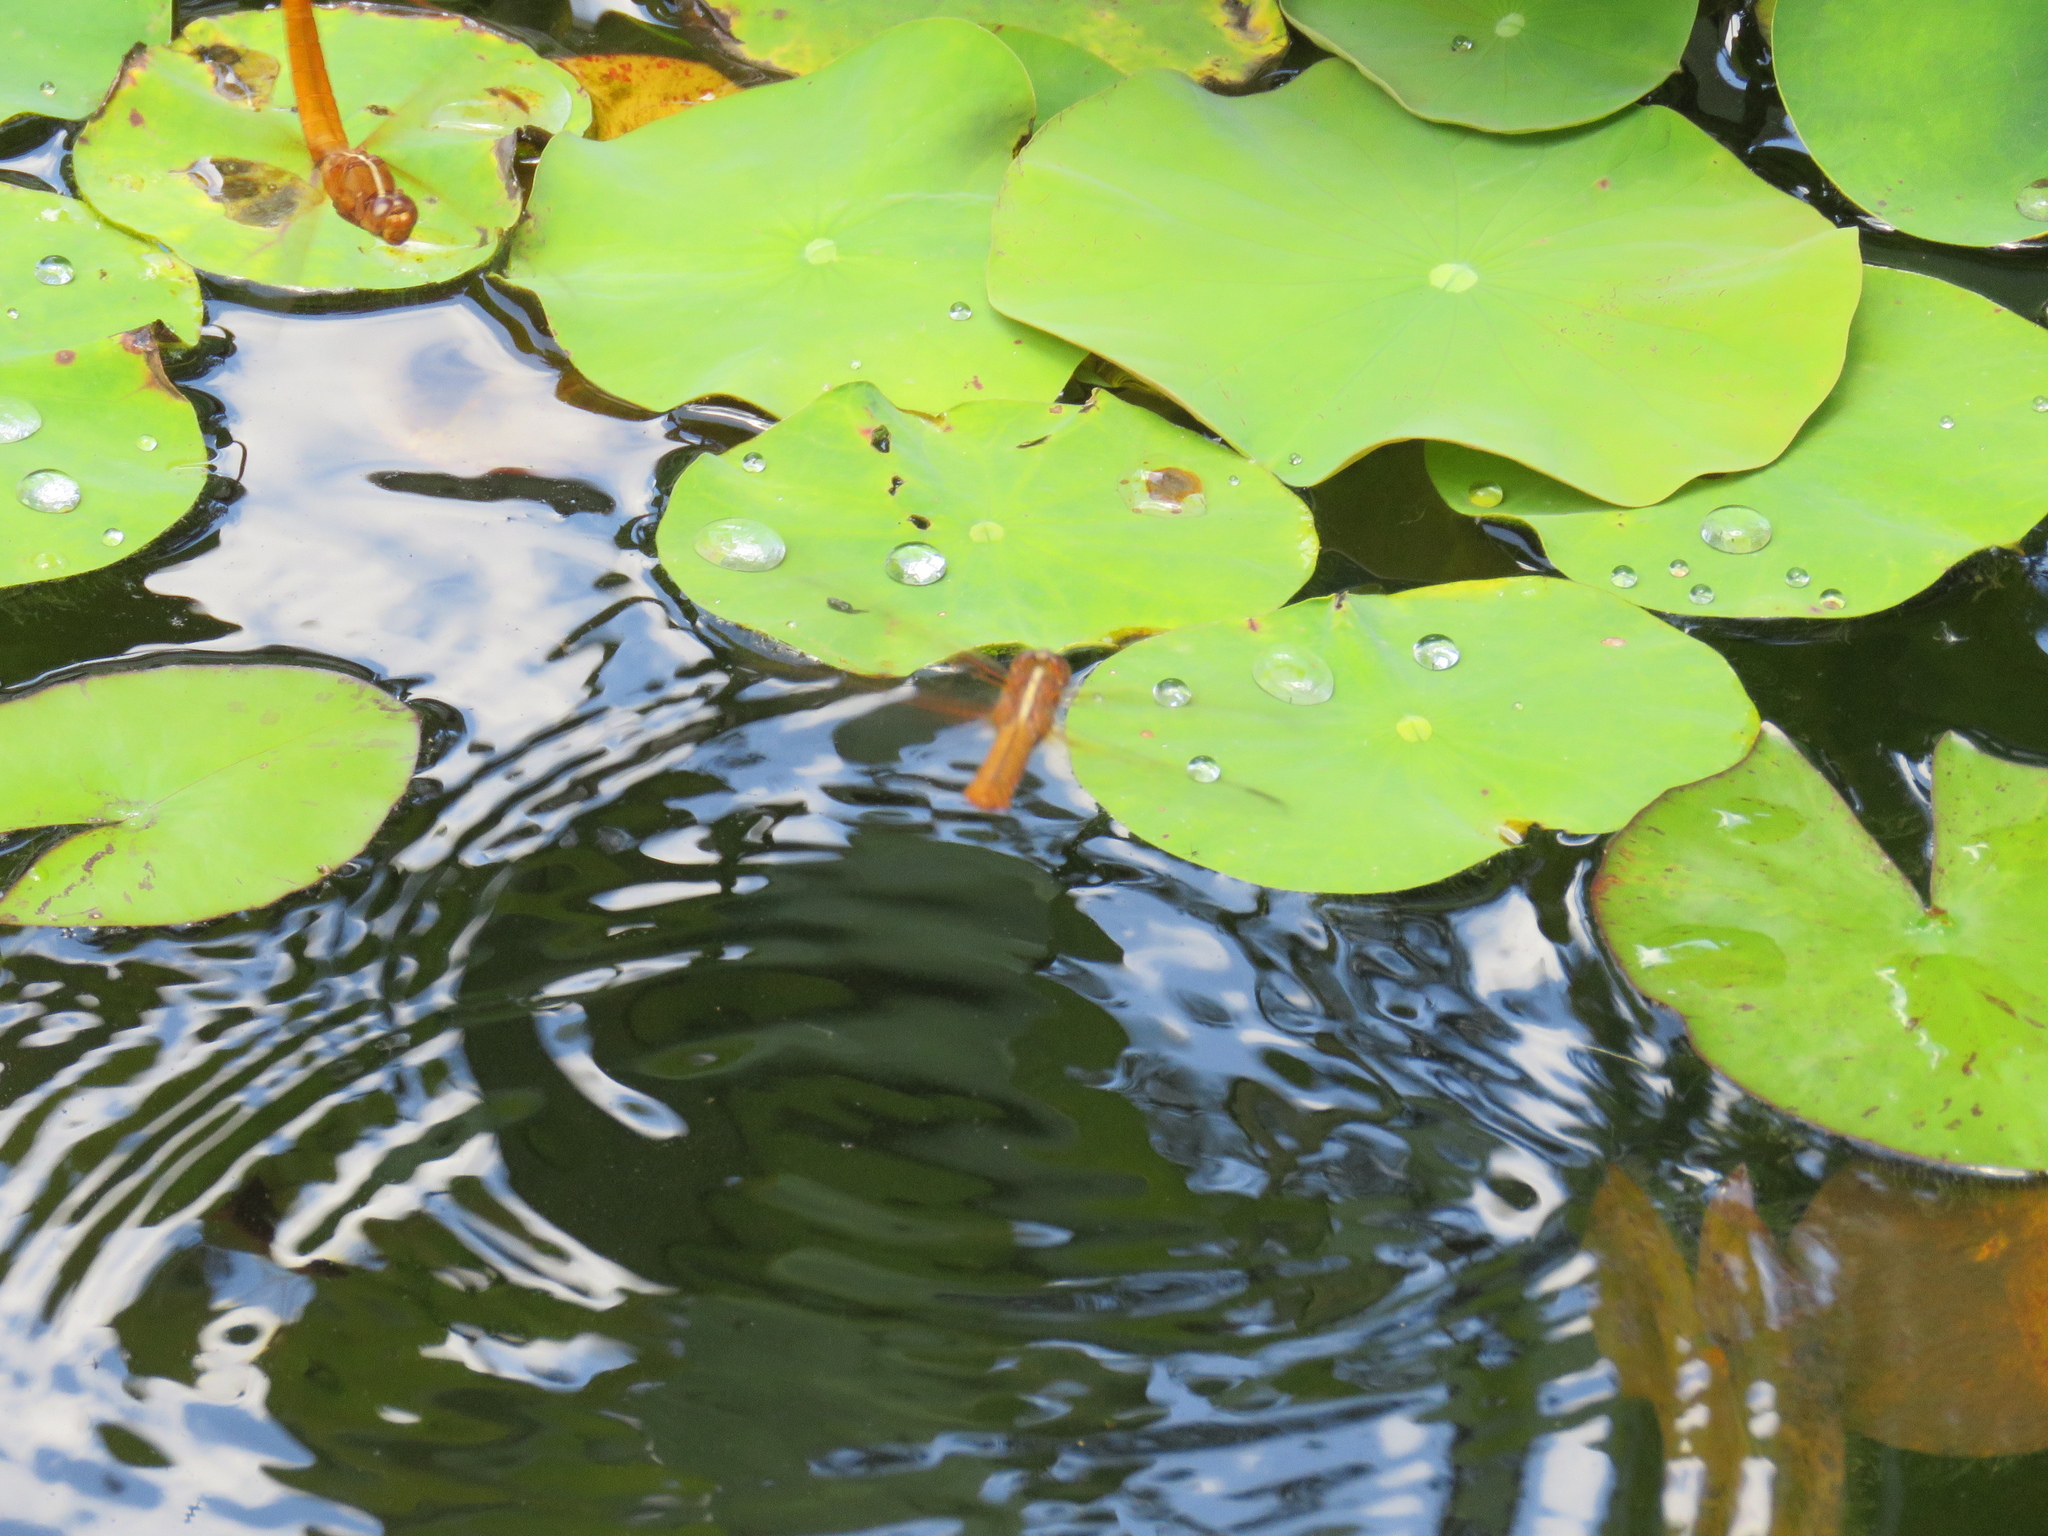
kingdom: Animalia
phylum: Arthropoda
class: Insecta
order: Odonata
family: Libellulidae
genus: Libellula
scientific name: Libellula croceipennis
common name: Neon skimmer
